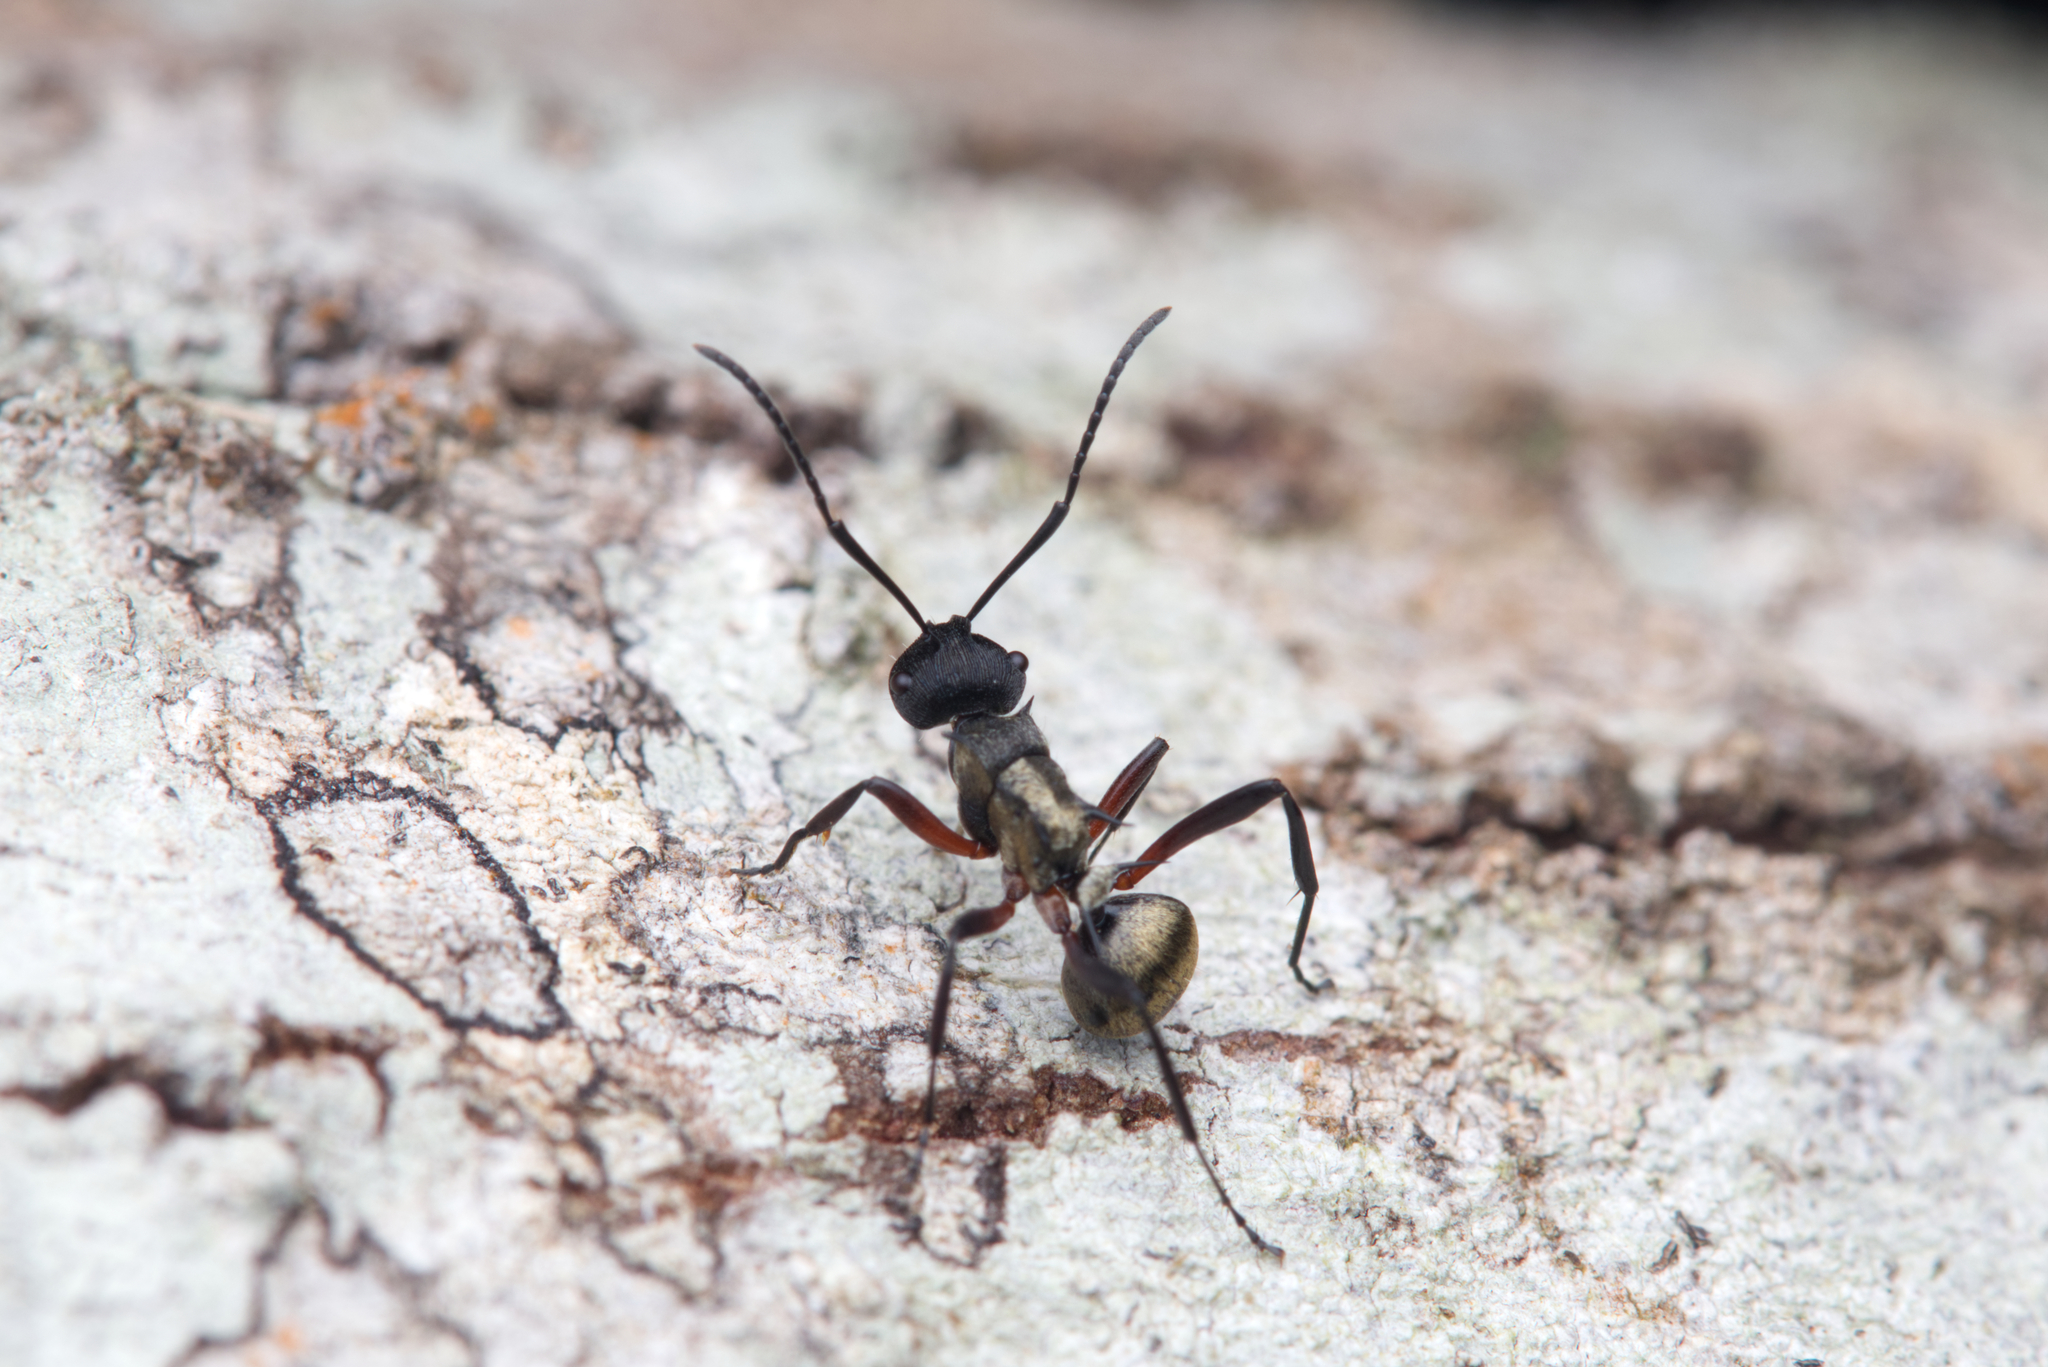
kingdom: Animalia
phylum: Arthropoda
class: Insecta
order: Hymenoptera
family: Formicidae
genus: Polyrhachis
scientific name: Polyrhachis rufifemur
